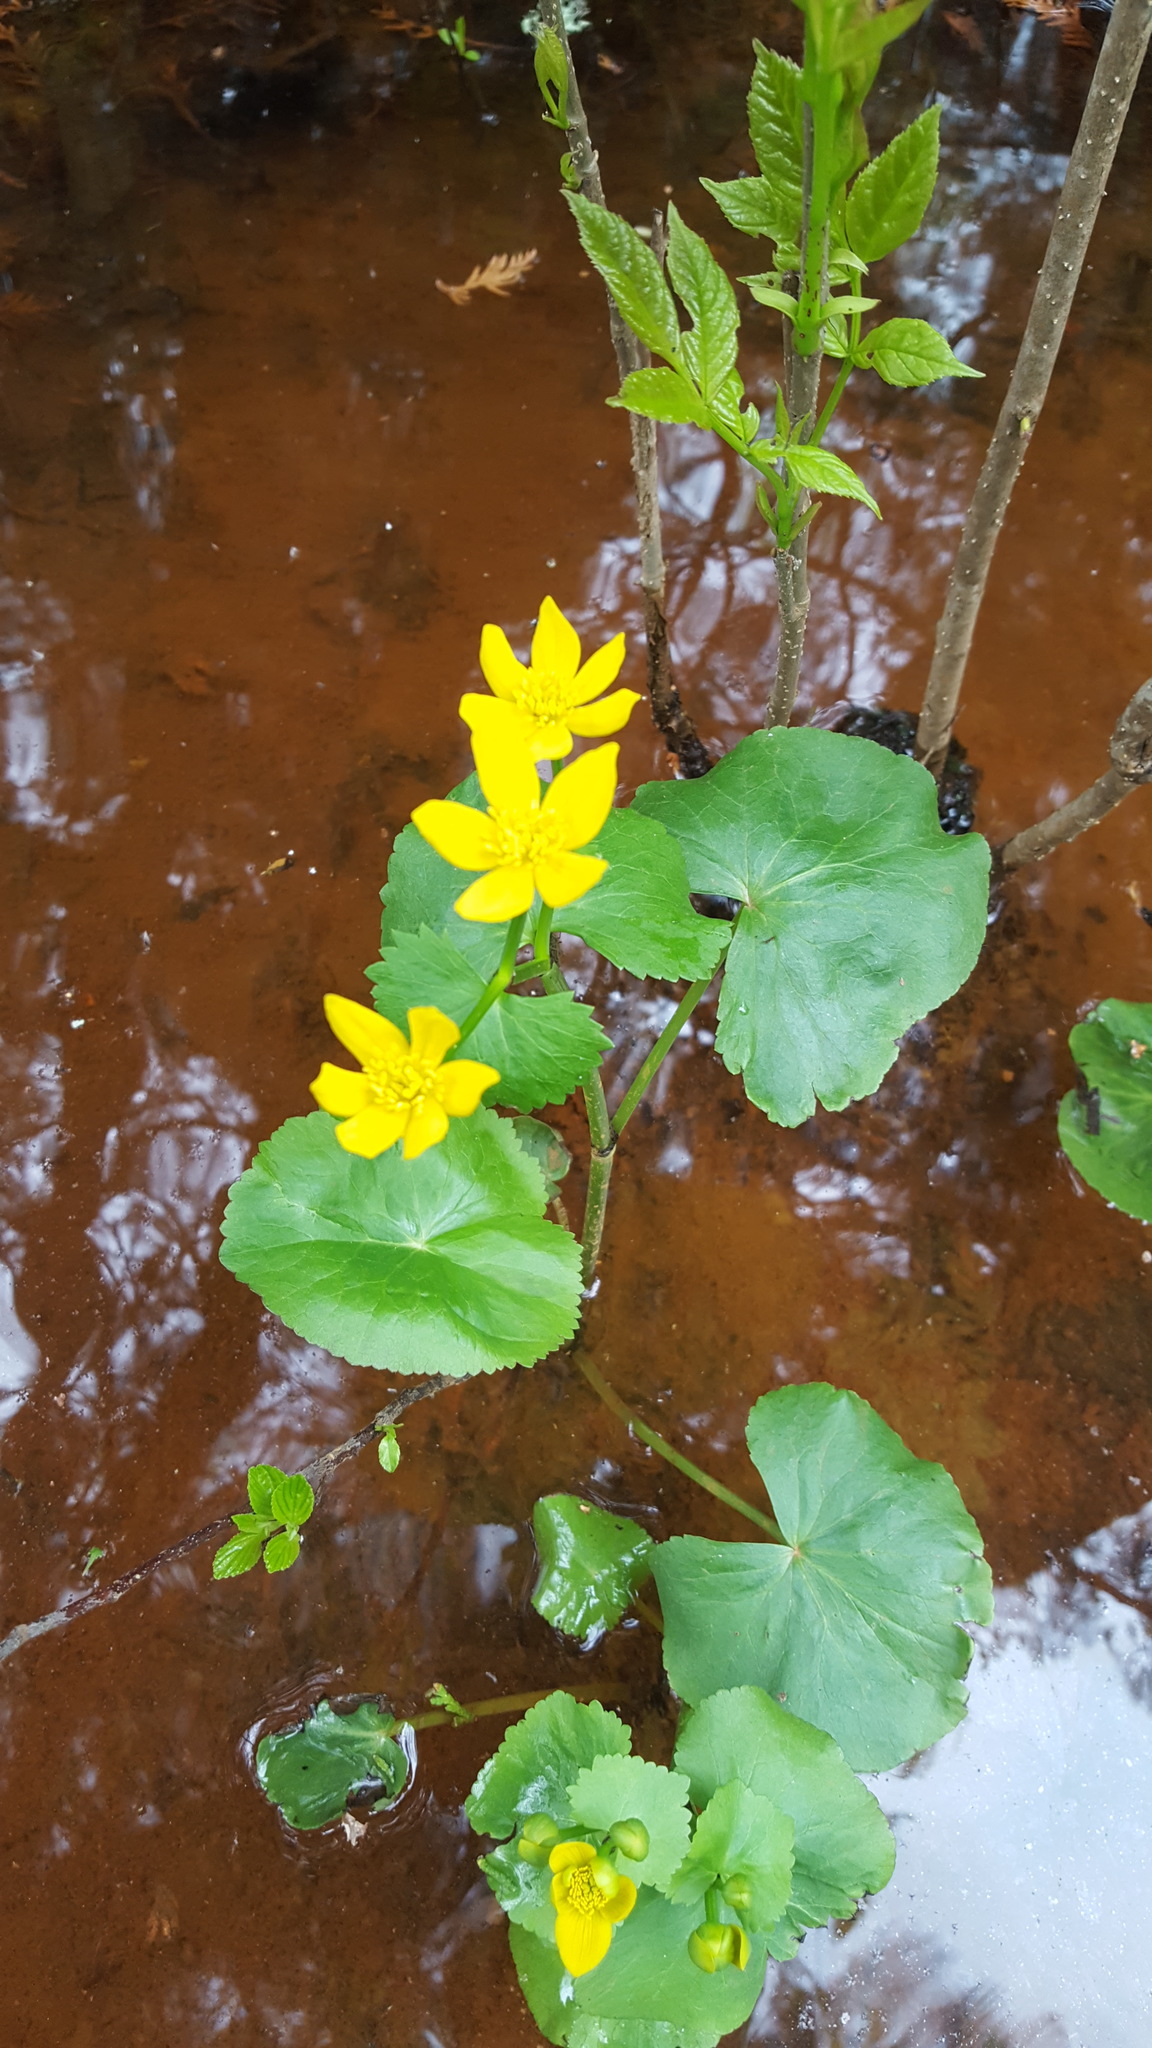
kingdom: Plantae
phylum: Tracheophyta
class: Magnoliopsida
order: Ranunculales
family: Ranunculaceae
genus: Caltha
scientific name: Caltha palustris
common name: Marsh marigold
